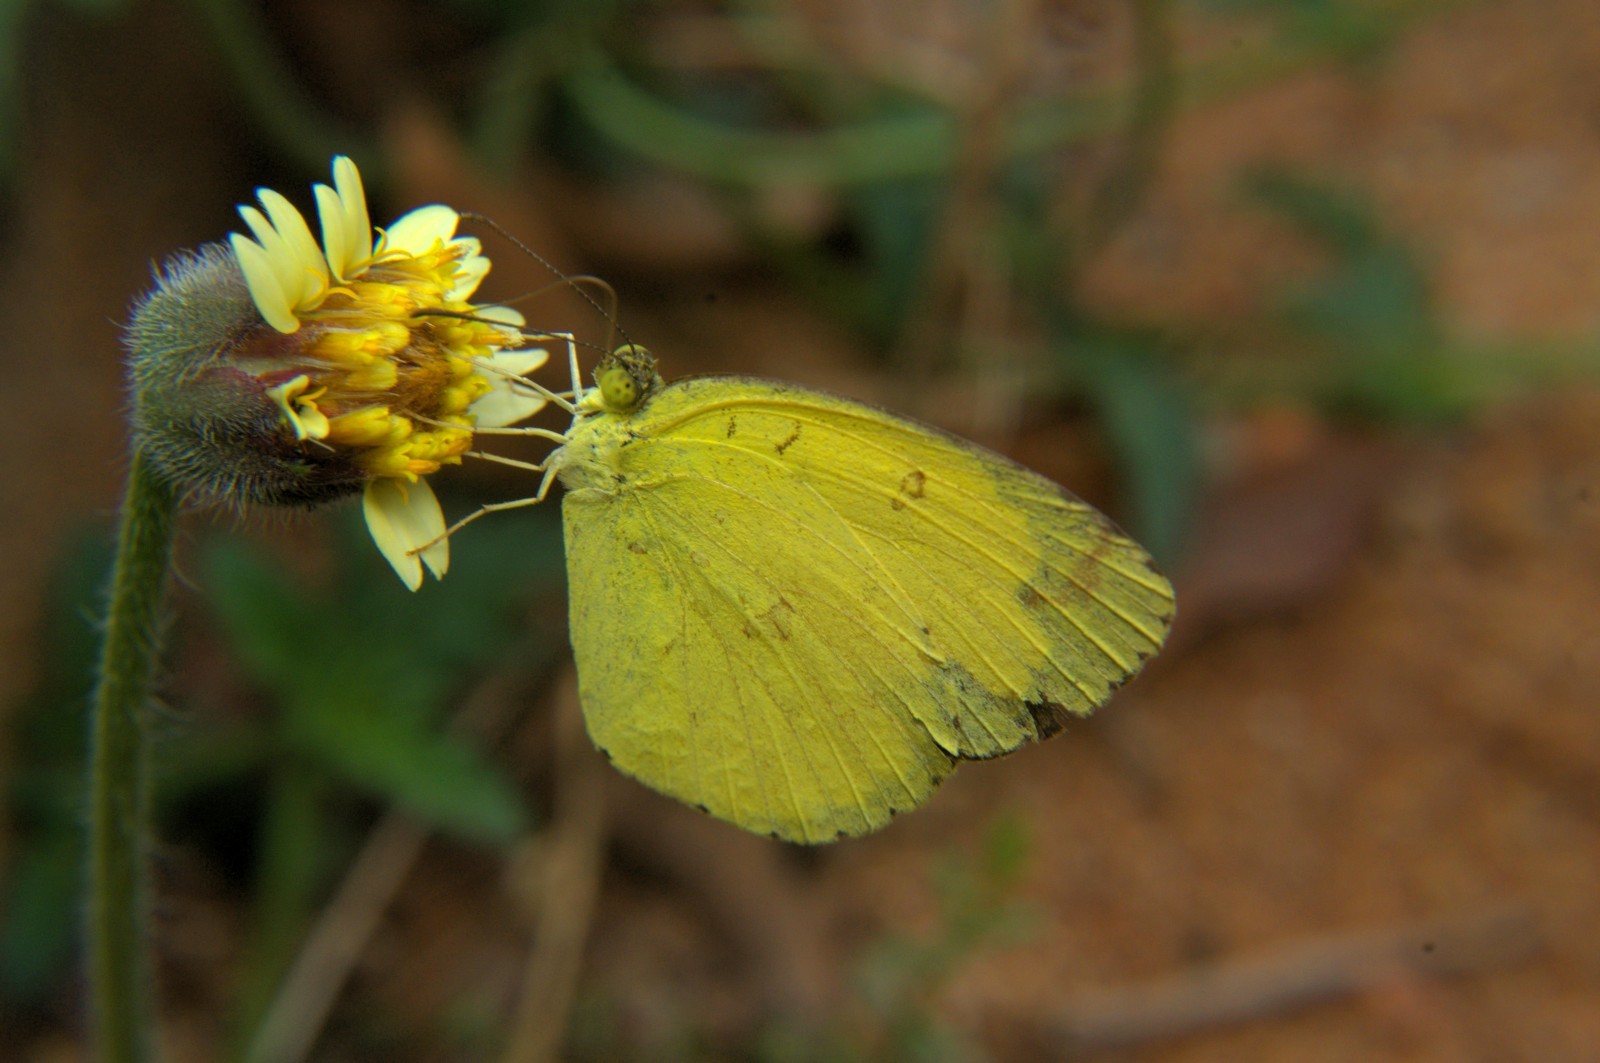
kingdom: Animalia
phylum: Arthropoda
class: Insecta
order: Lepidoptera
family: Pieridae
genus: Eurema
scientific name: Eurema hecabe
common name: Pale grass yellow
